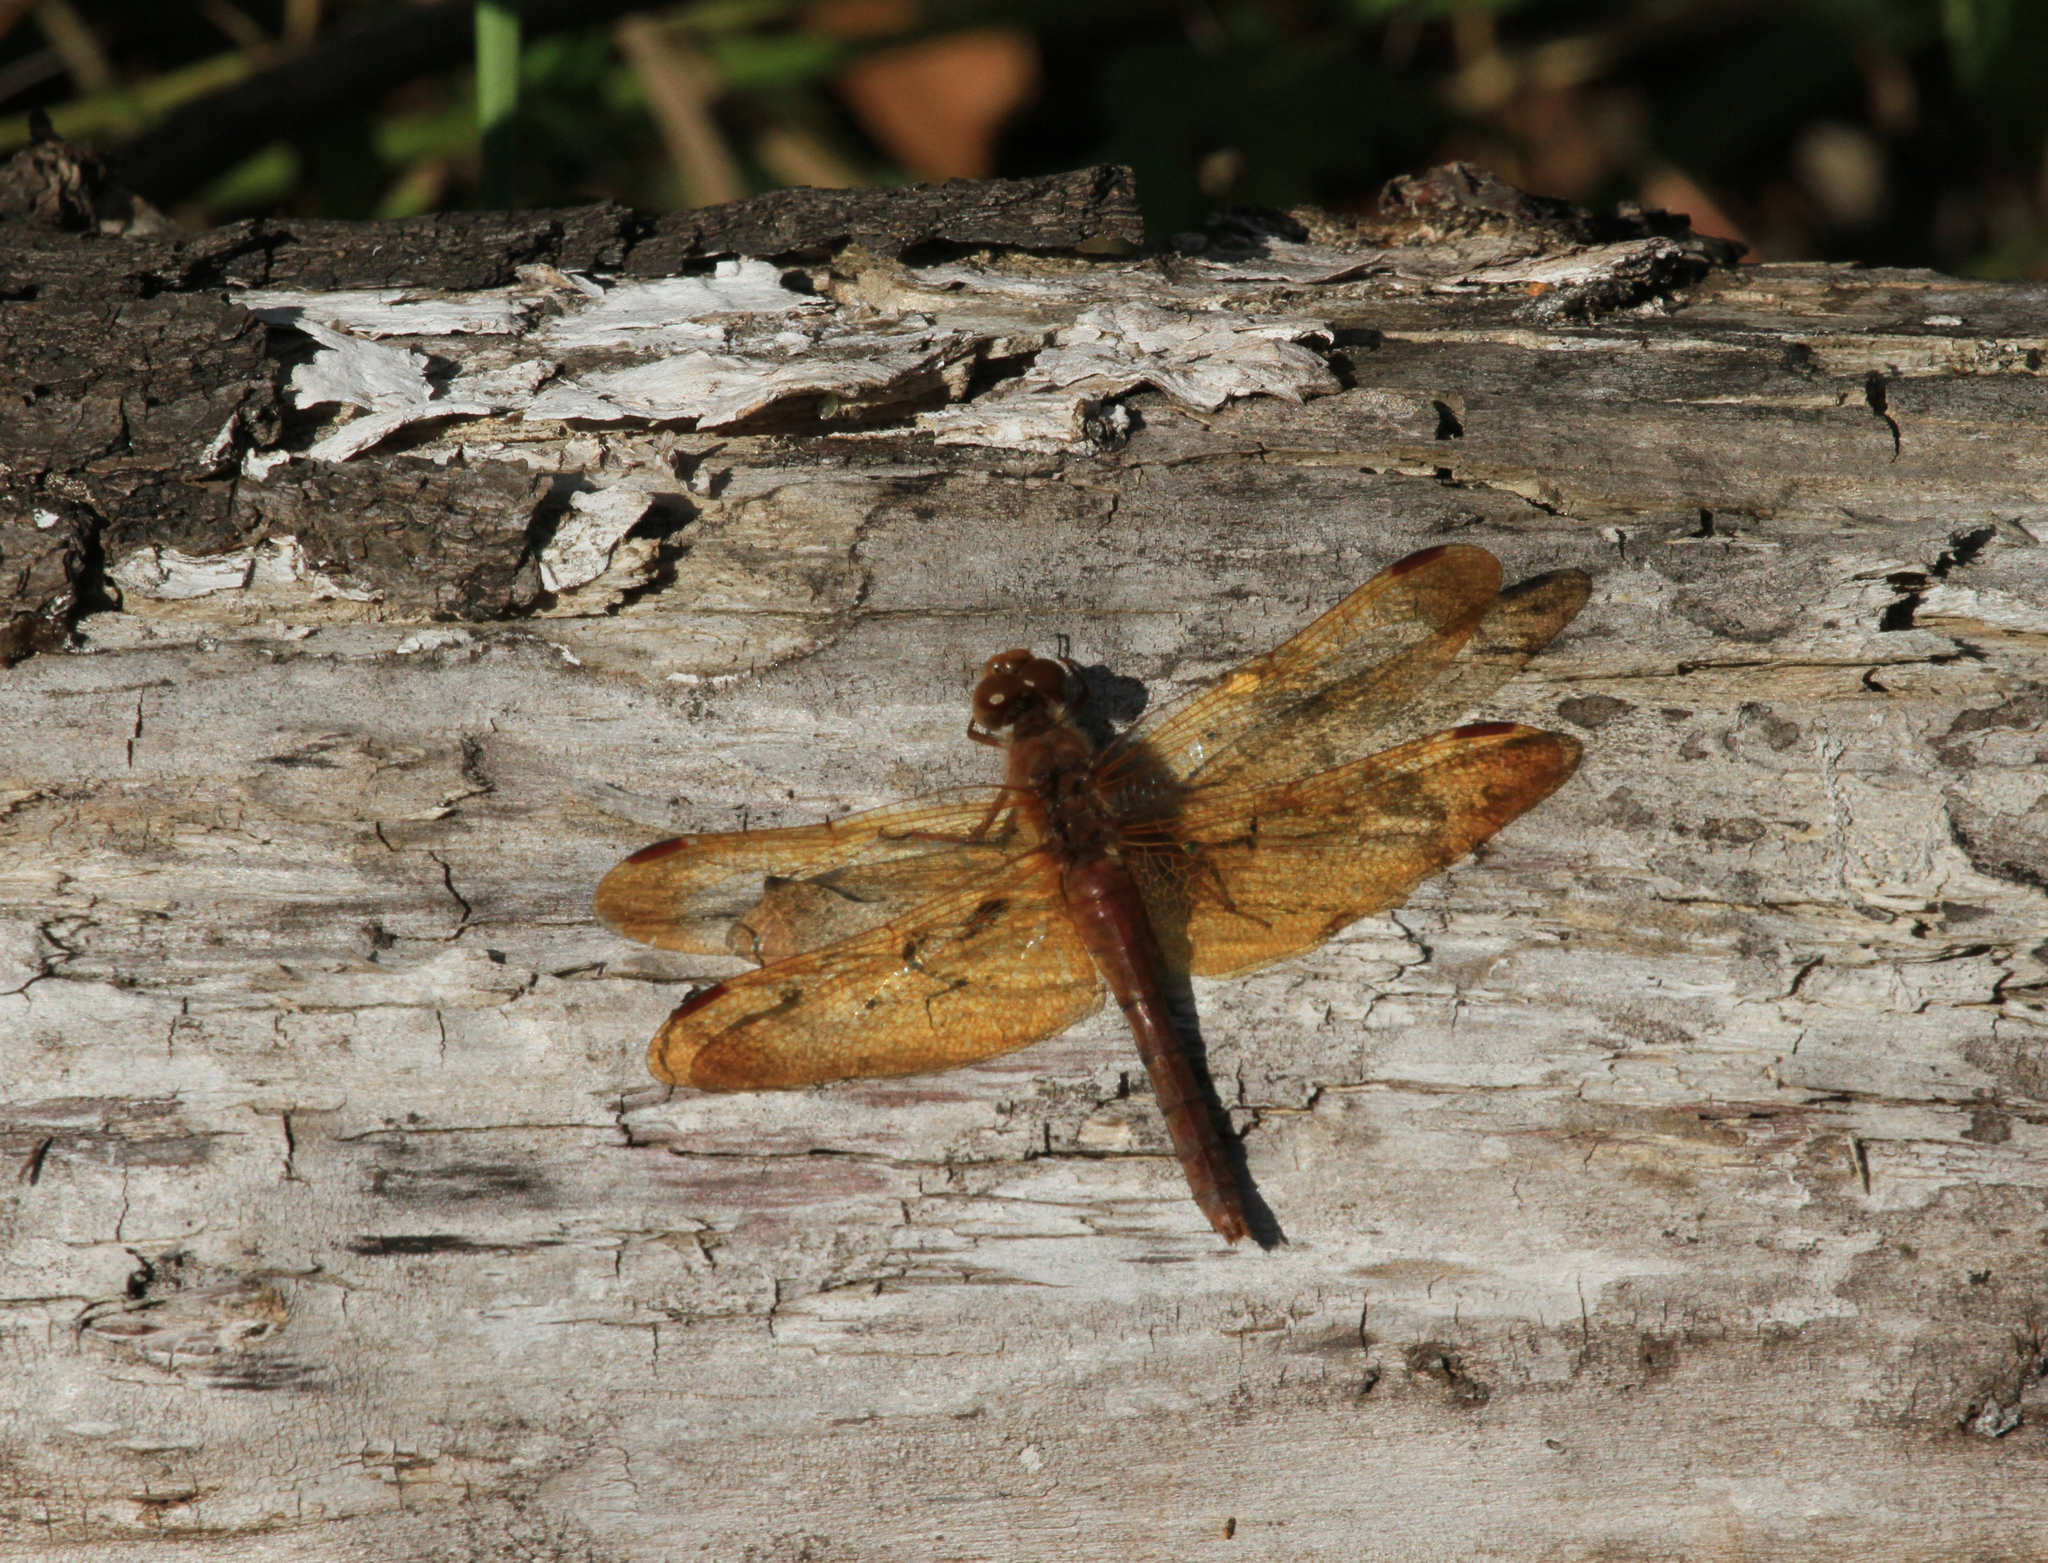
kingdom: Animalia
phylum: Arthropoda
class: Insecta
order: Odonata
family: Libellulidae
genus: Sympetrum
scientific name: Sympetrum croceolum
